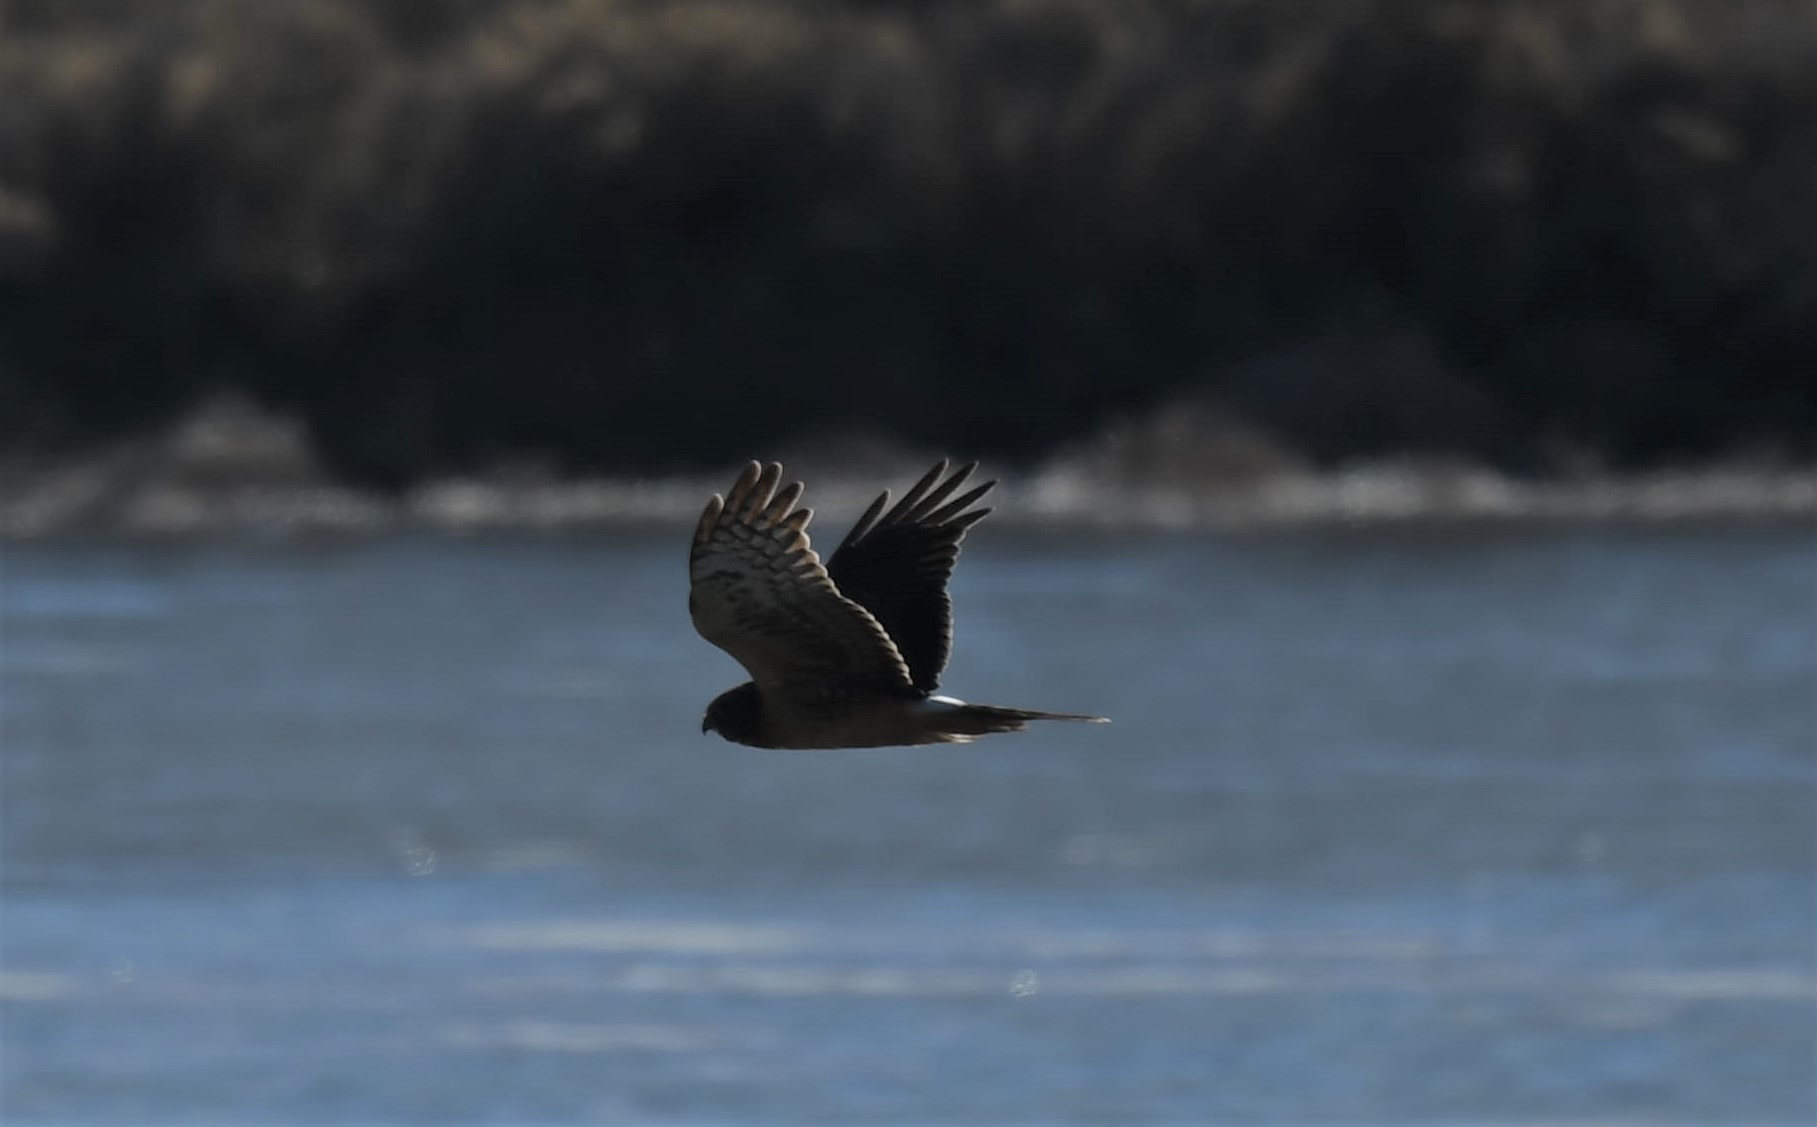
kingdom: Animalia
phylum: Chordata
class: Aves
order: Accipitriformes
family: Accipitridae
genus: Circus
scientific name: Circus cyaneus
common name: Hen harrier
